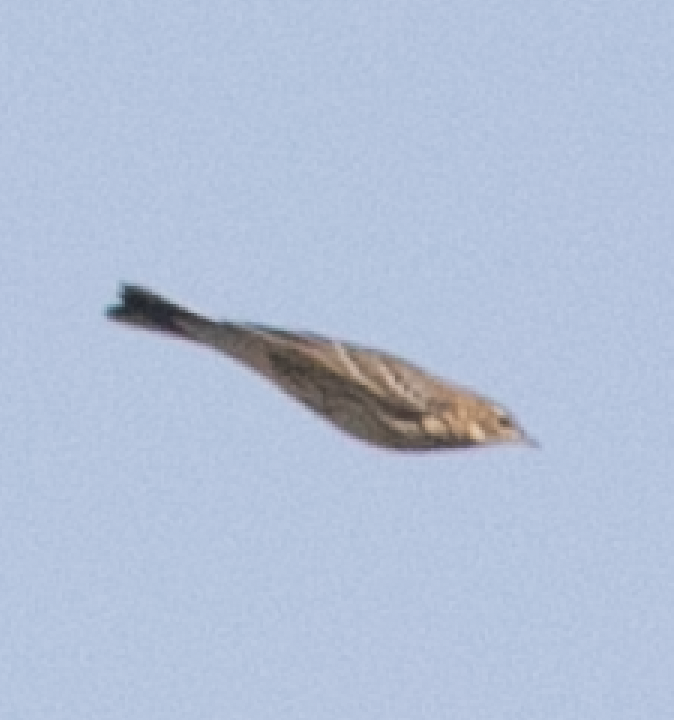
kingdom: Animalia
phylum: Chordata
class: Aves
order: Passeriformes
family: Motacillidae
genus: Anthus
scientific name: Anthus trivialis
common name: Tree pipit
